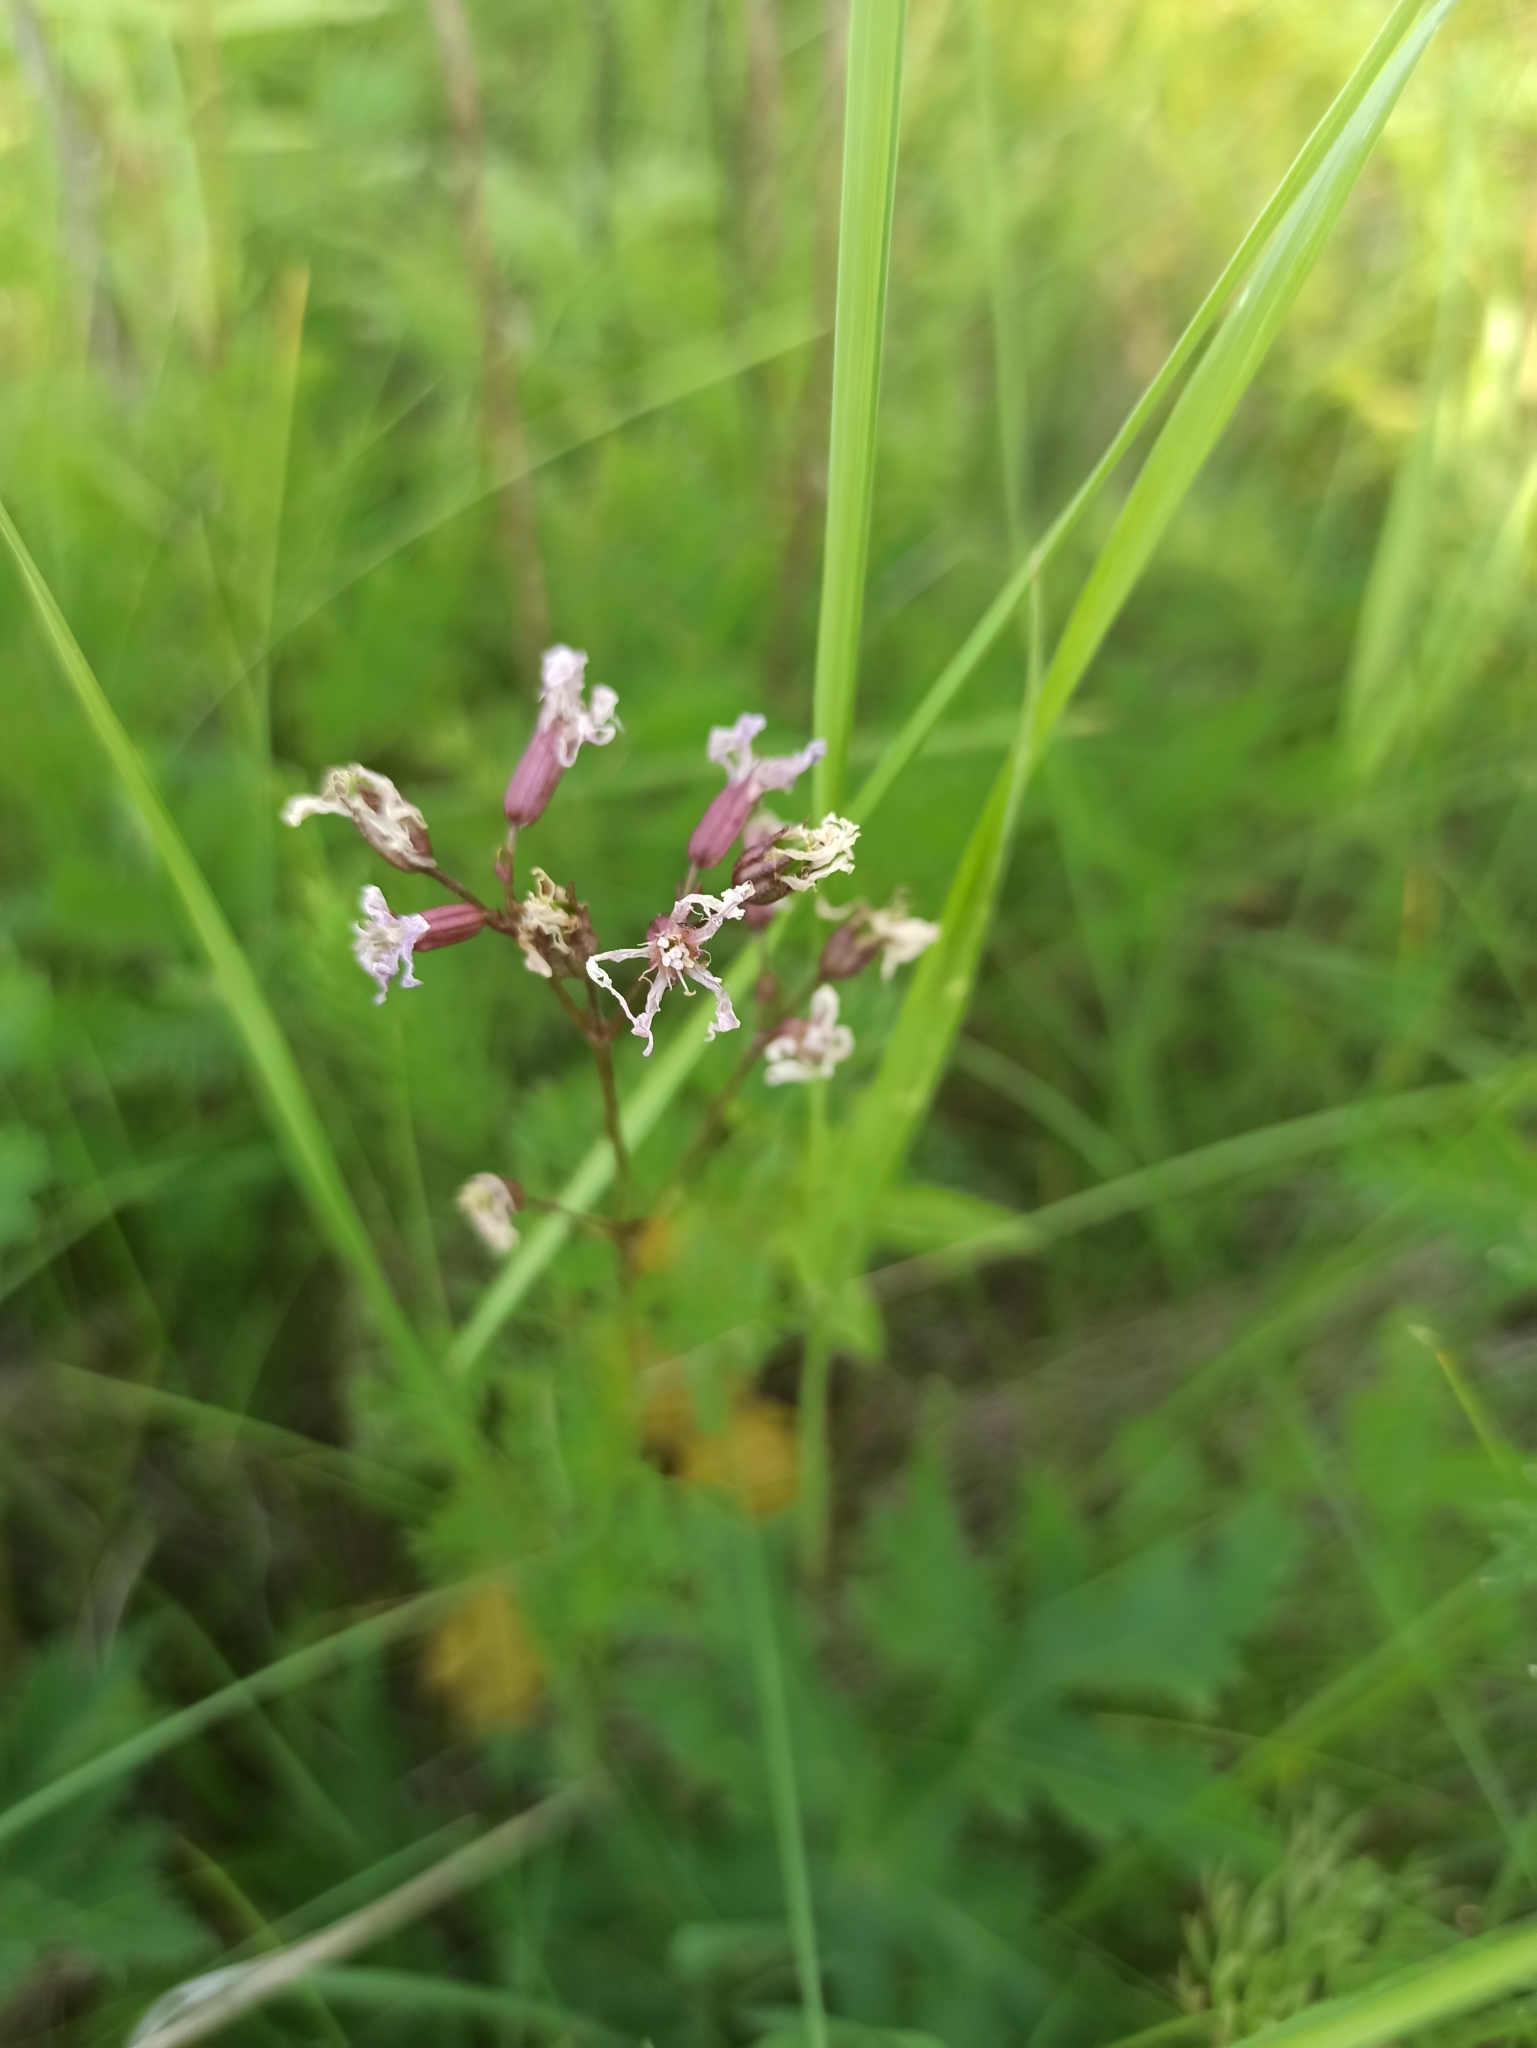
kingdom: Plantae
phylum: Tracheophyta
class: Magnoliopsida
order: Caryophyllales
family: Caryophyllaceae
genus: Silene
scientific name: Silene flos-cuculi
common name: Ragged-robin
